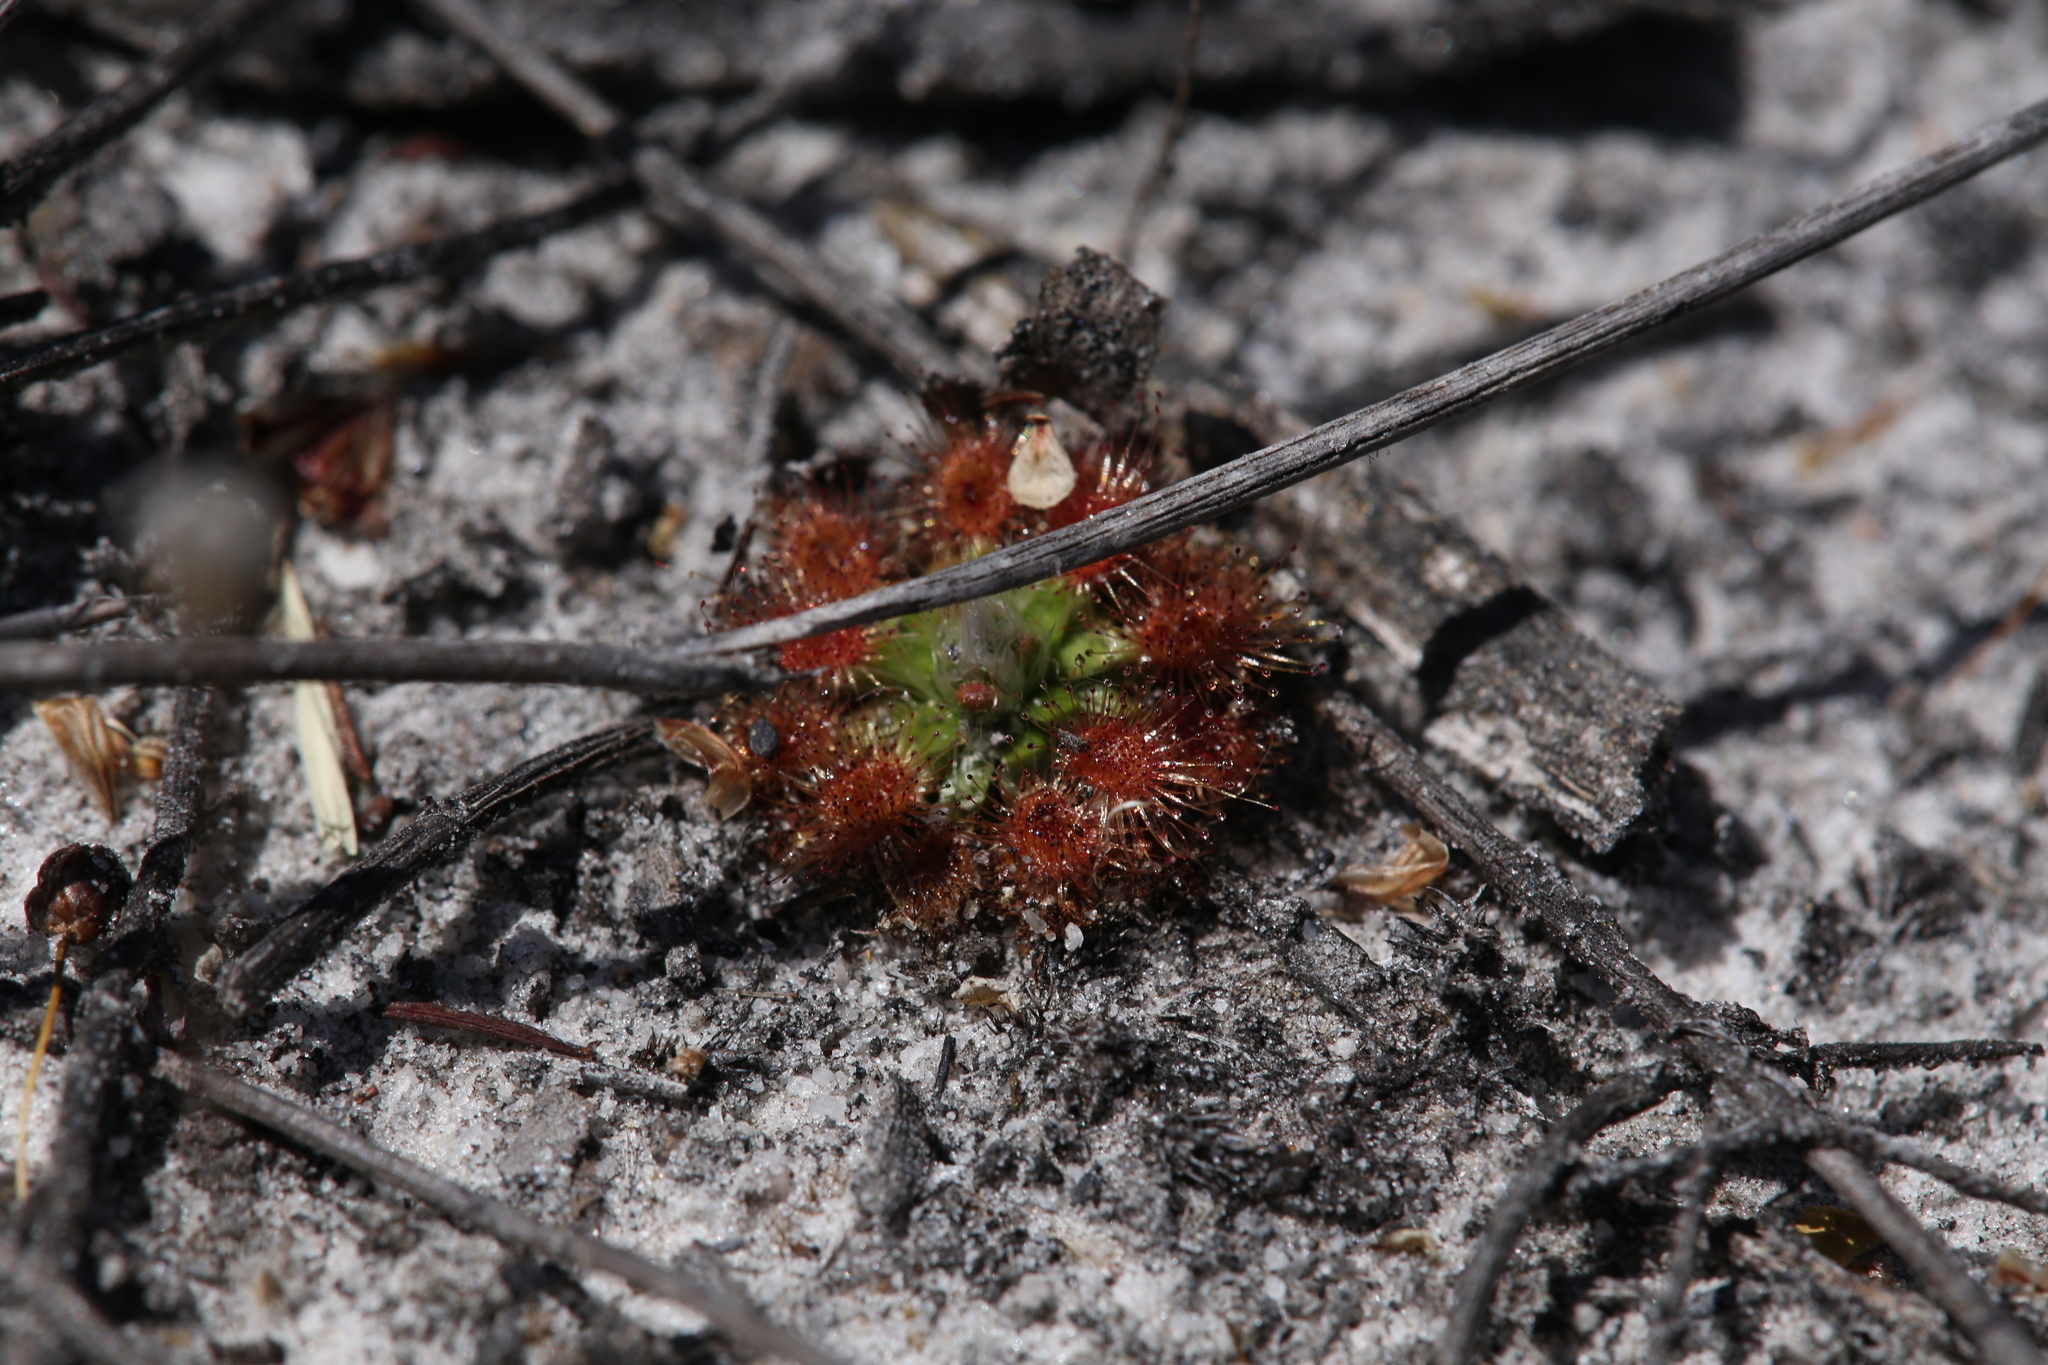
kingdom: Plantae
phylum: Tracheophyta
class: Magnoliopsida
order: Caryophyllales
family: Droseraceae
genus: Drosera
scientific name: Drosera pulchella
